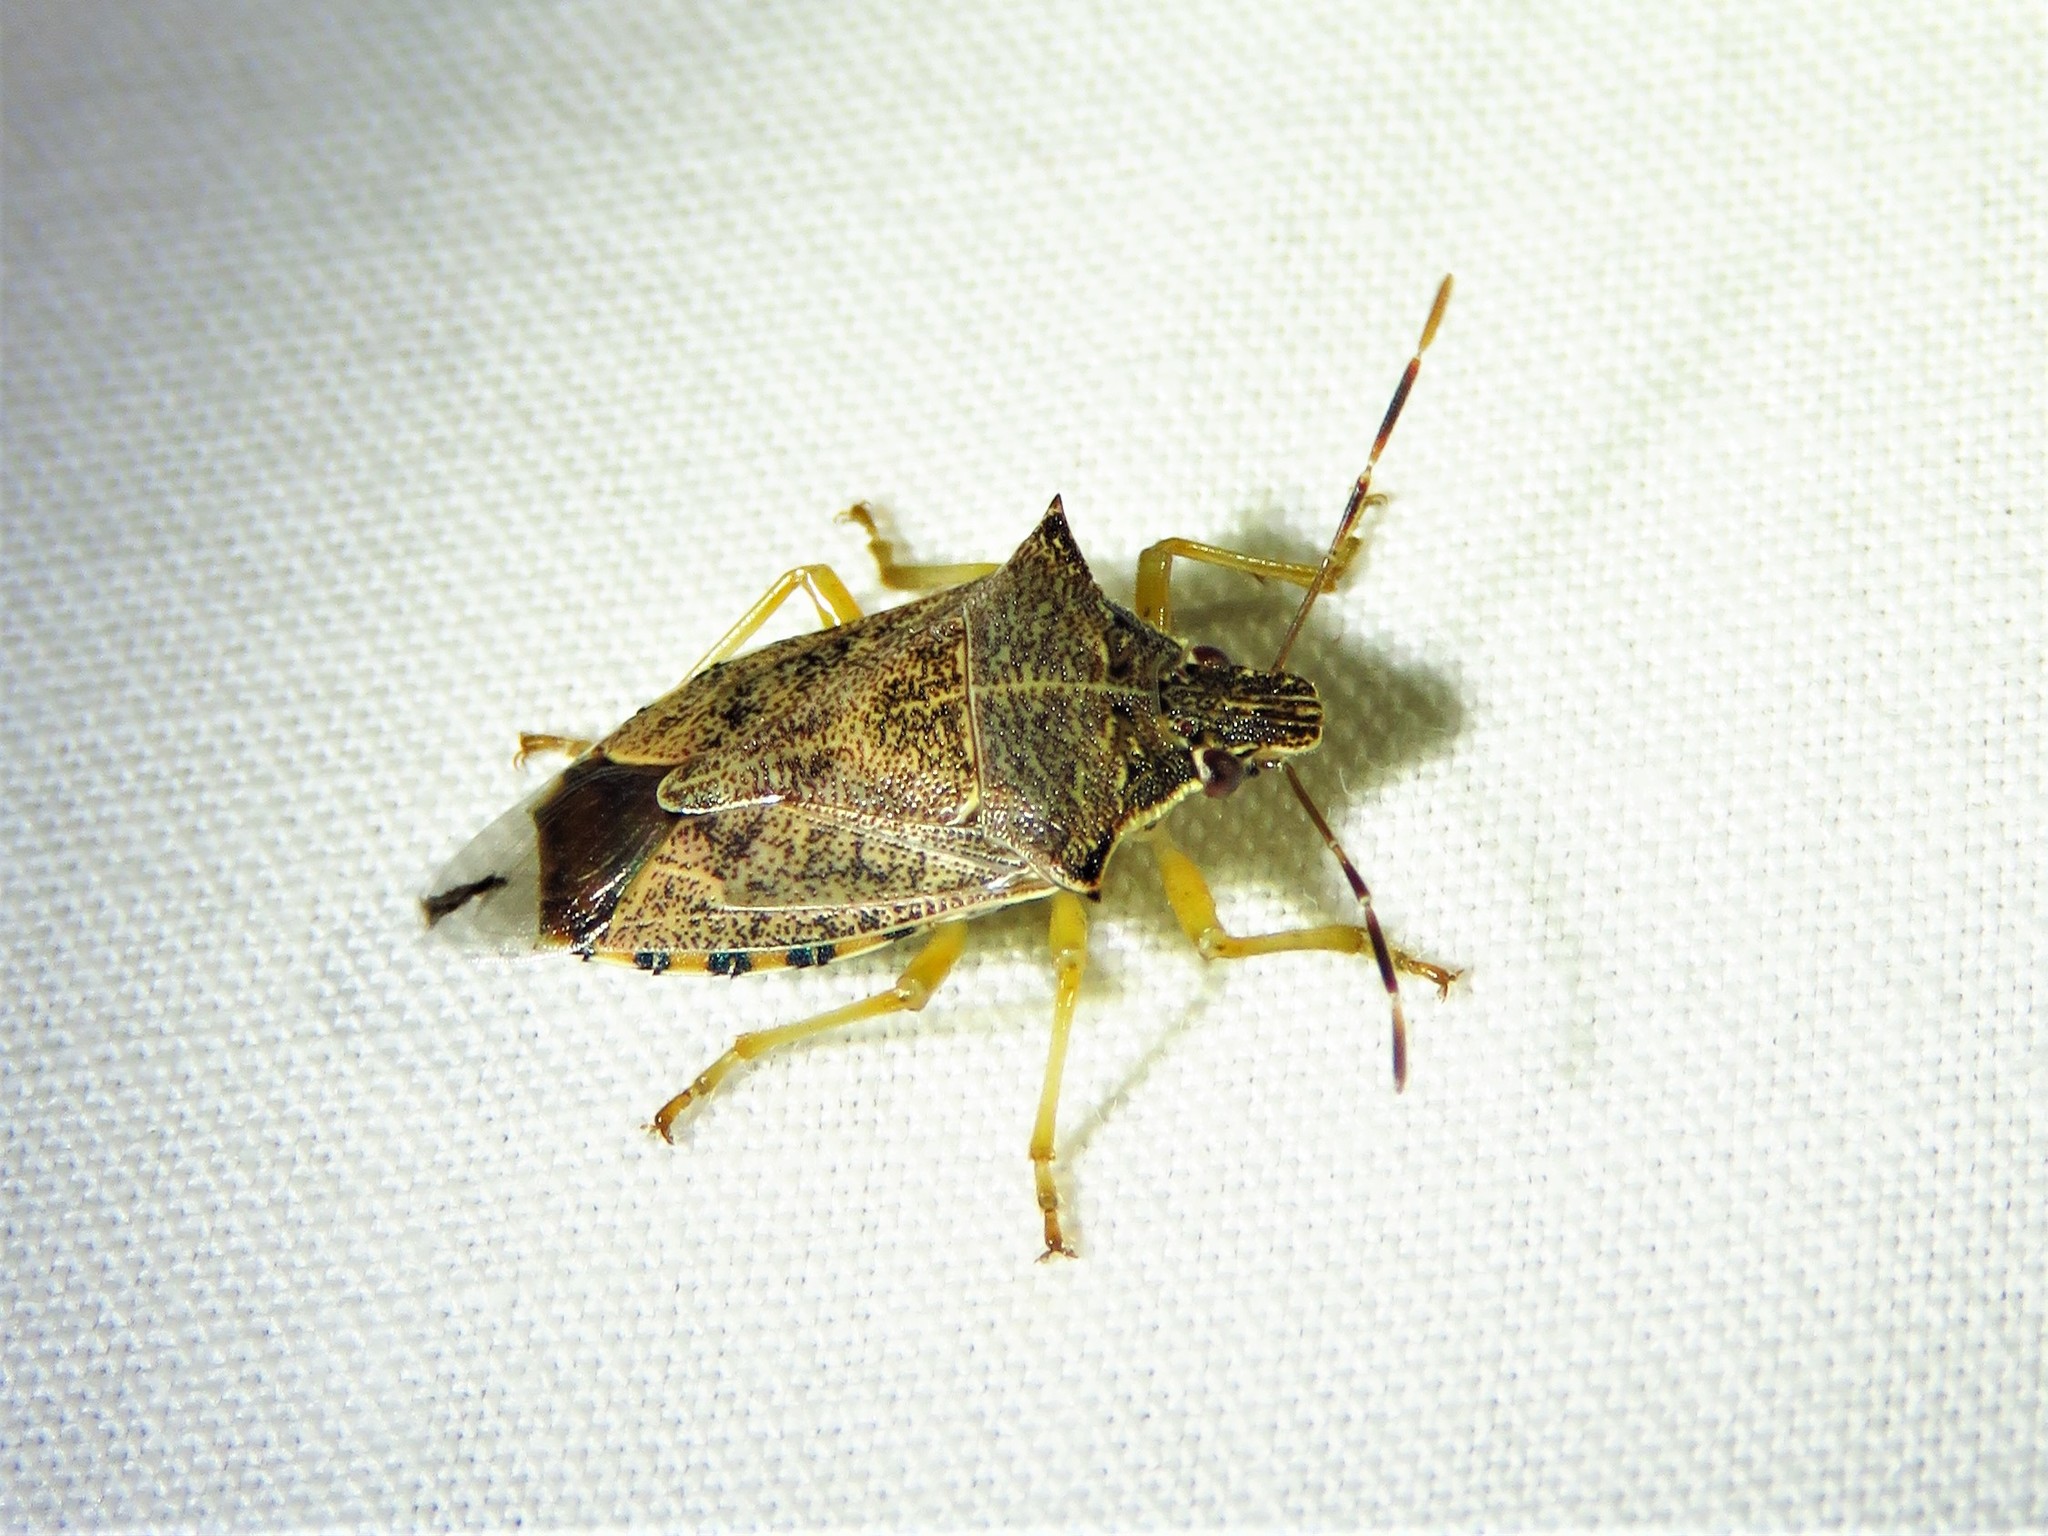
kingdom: Animalia
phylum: Arthropoda
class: Insecta
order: Hemiptera
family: Pentatomidae
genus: Podisus
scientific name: Podisus maculiventris
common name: Spined soldier bug
